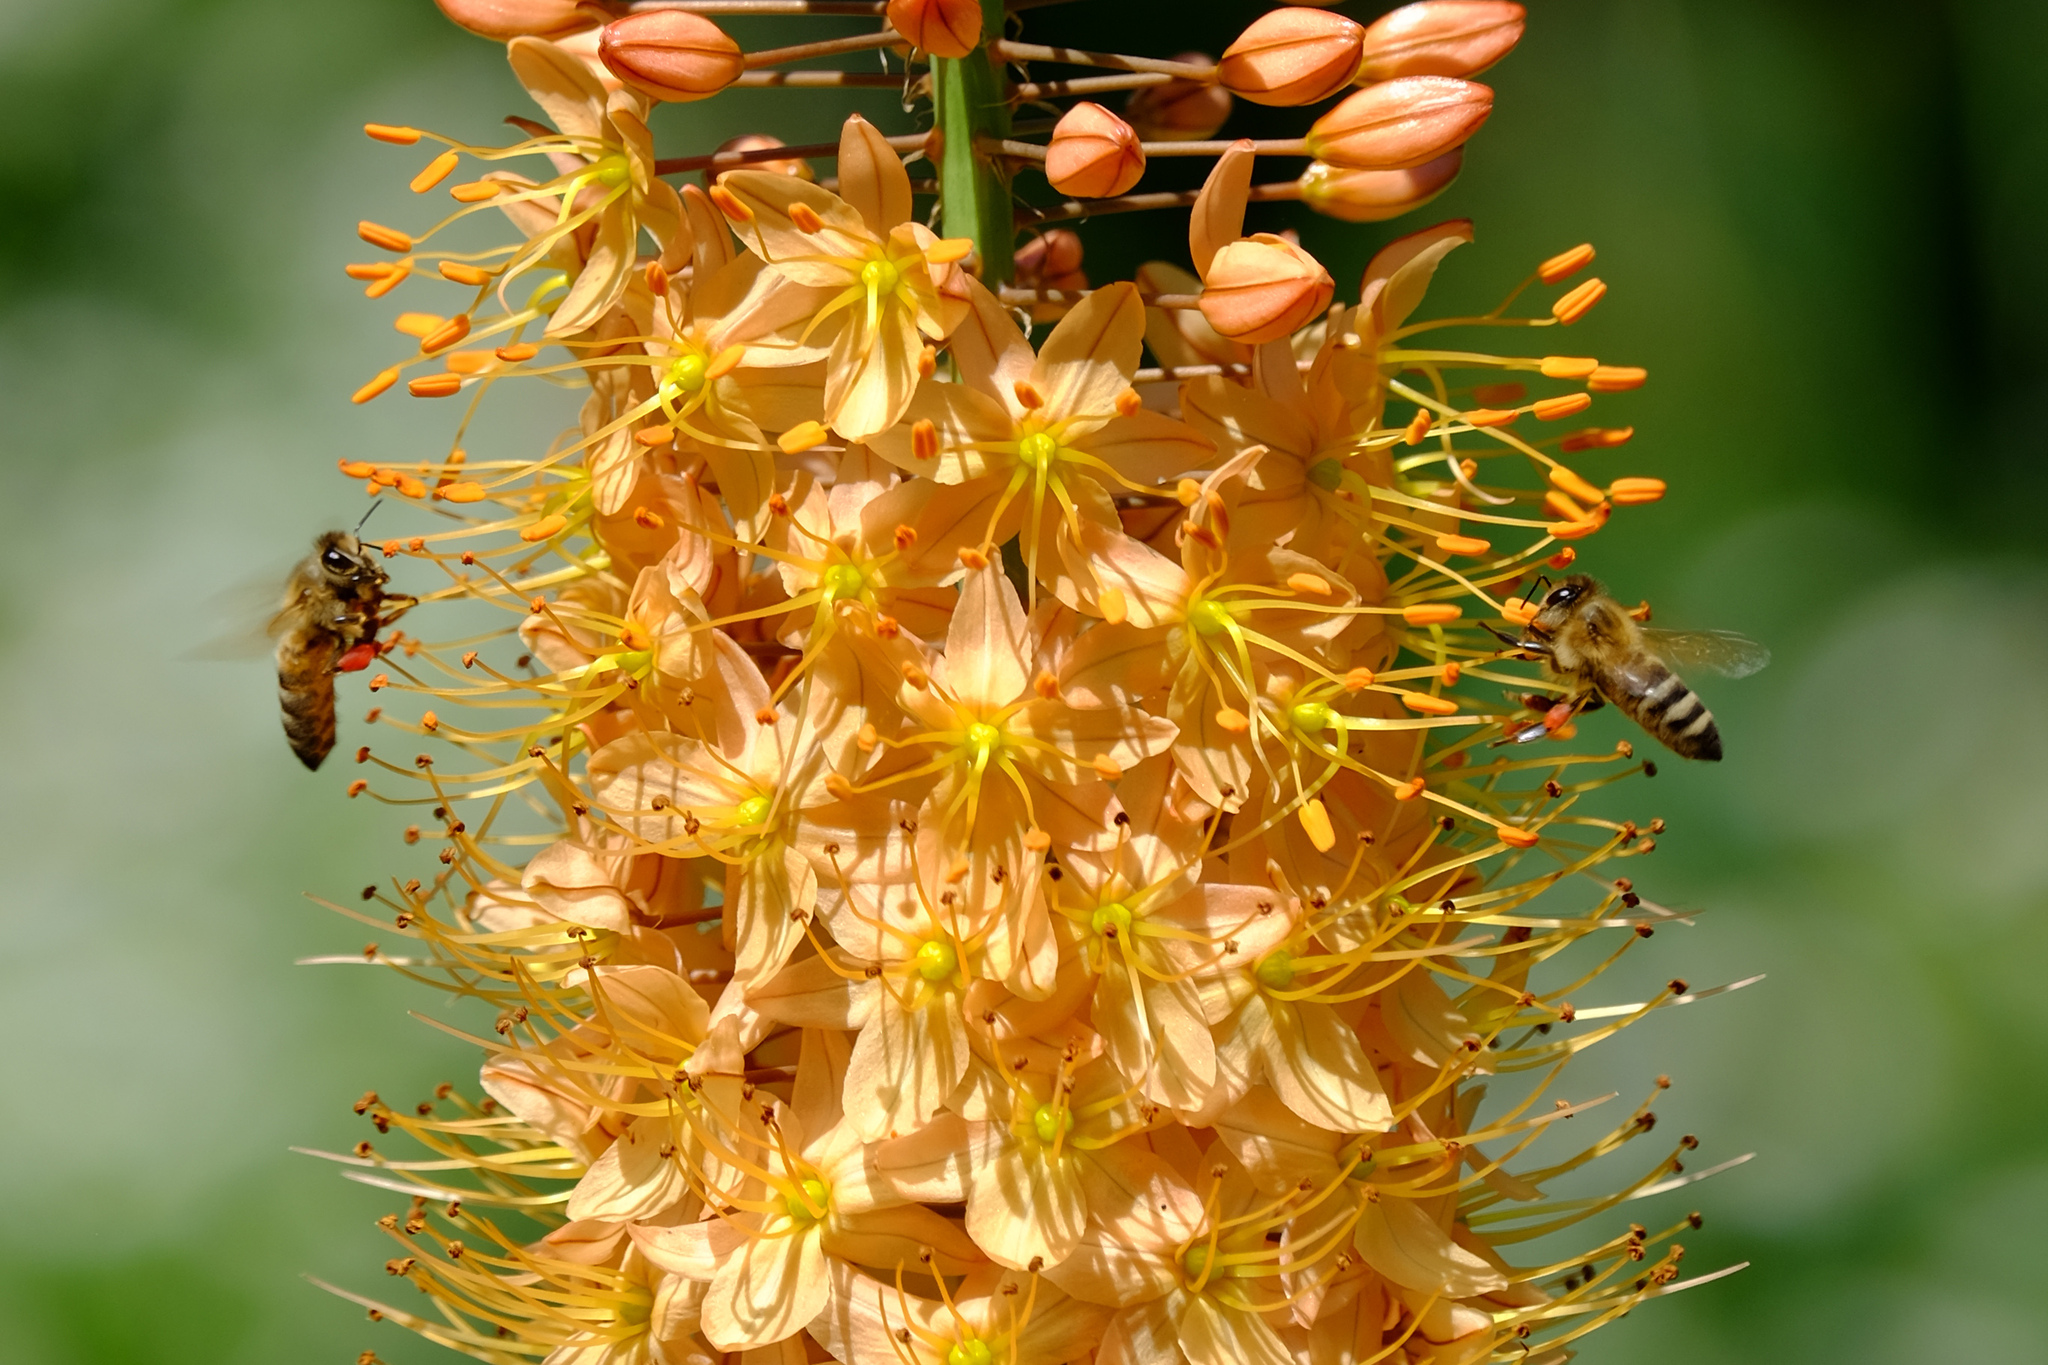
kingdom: Animalia
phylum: Arthropoda
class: Insecta
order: Hymenoptera
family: Apidae
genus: Apis
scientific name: Apis mellifera
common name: Honey bee
